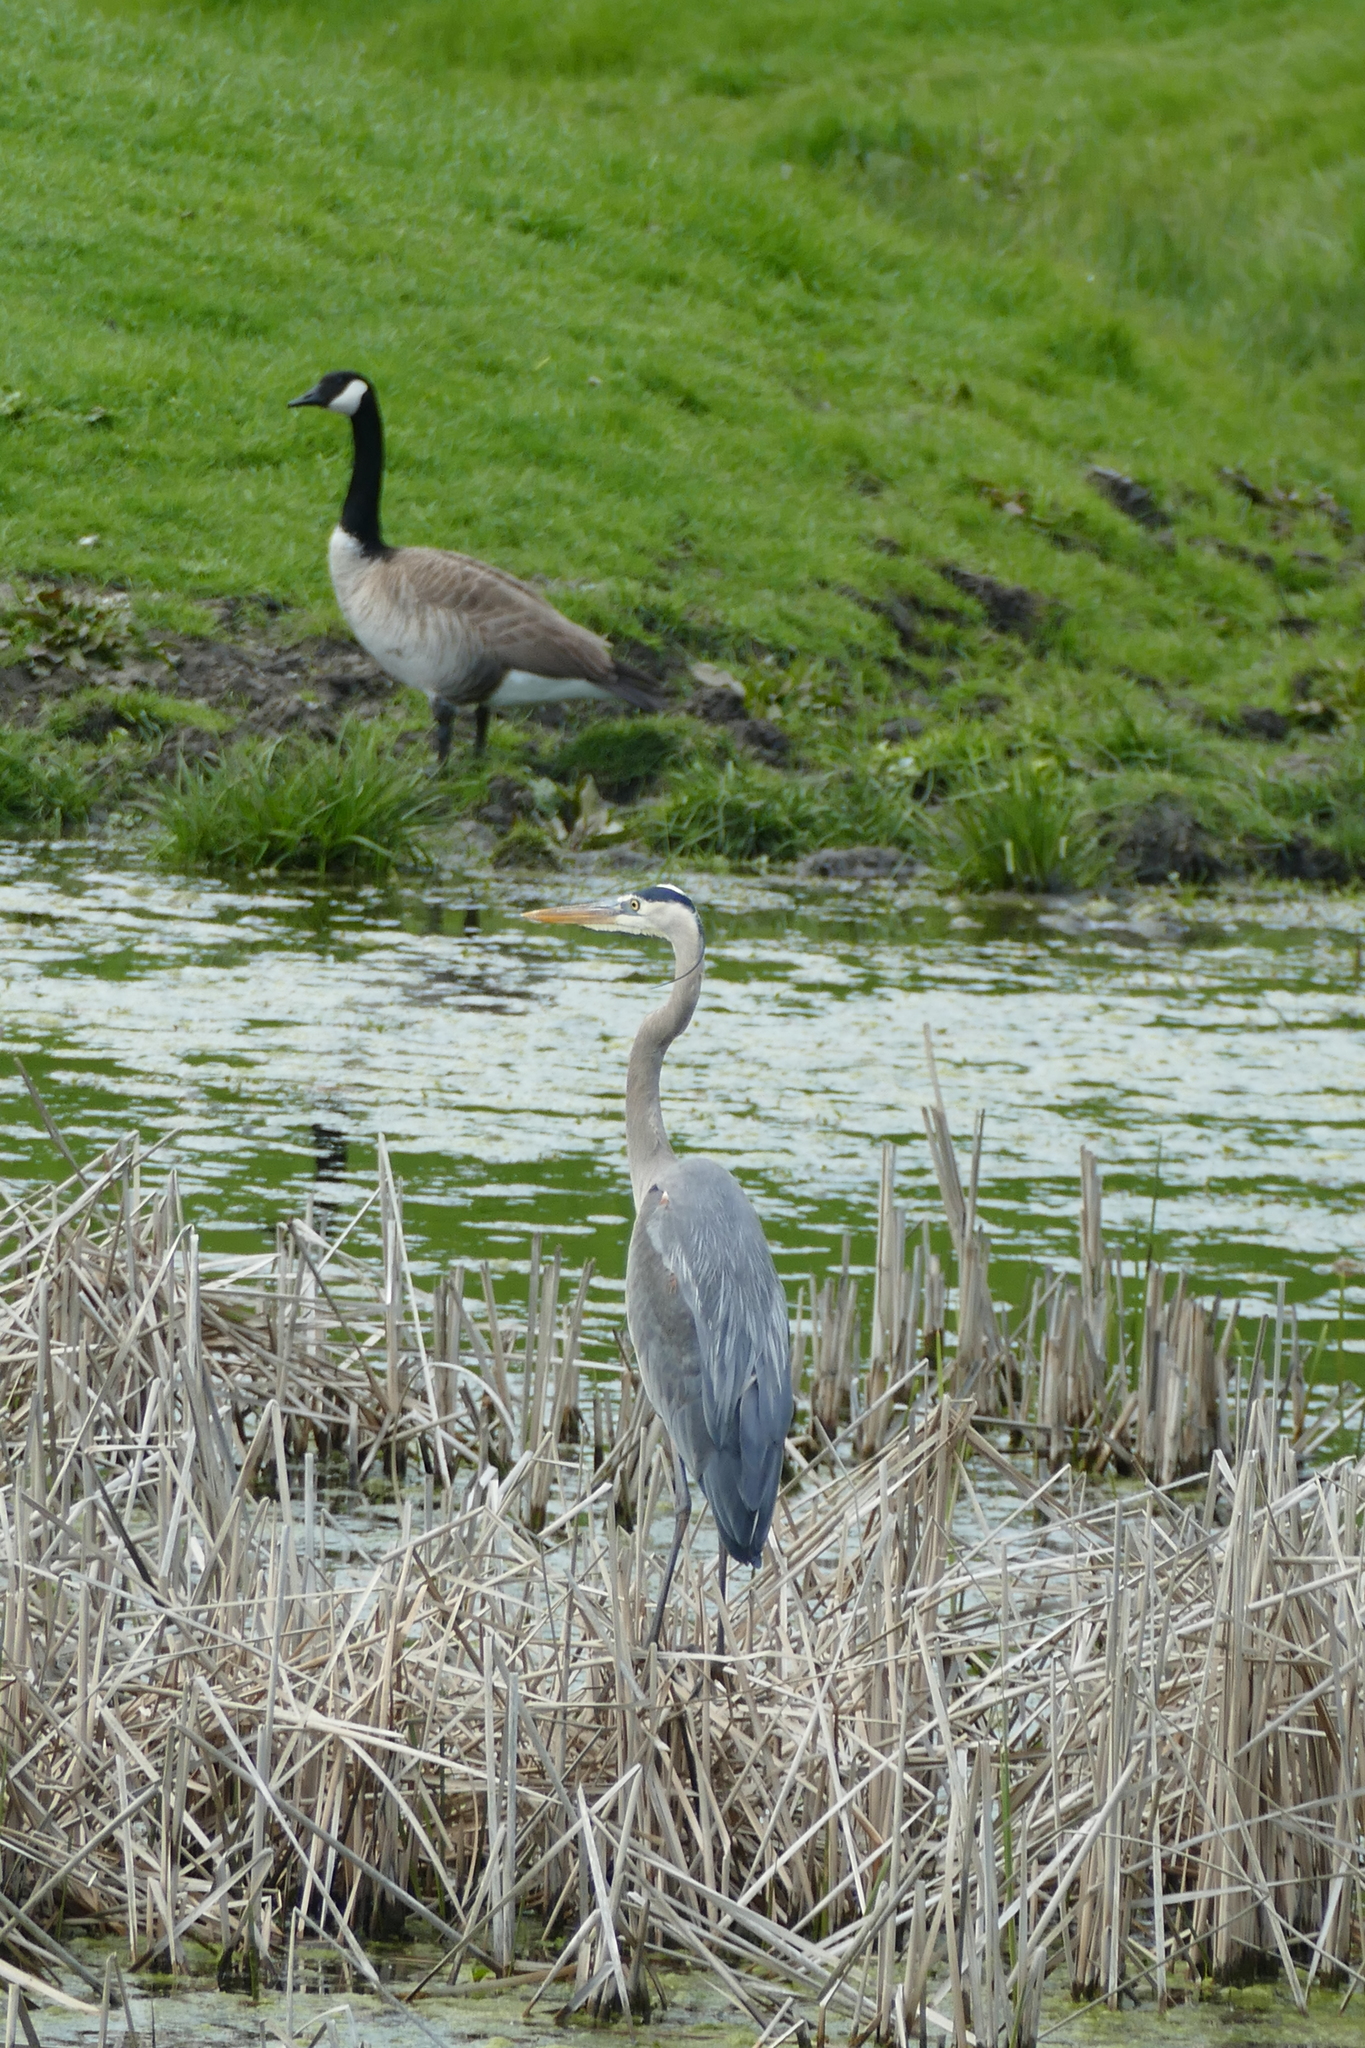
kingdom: Animalia
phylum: Chordata
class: Aves
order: Pelecaniformes
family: Ardeidae
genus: Ardea
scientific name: Ardea herodias
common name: Great blue heron
